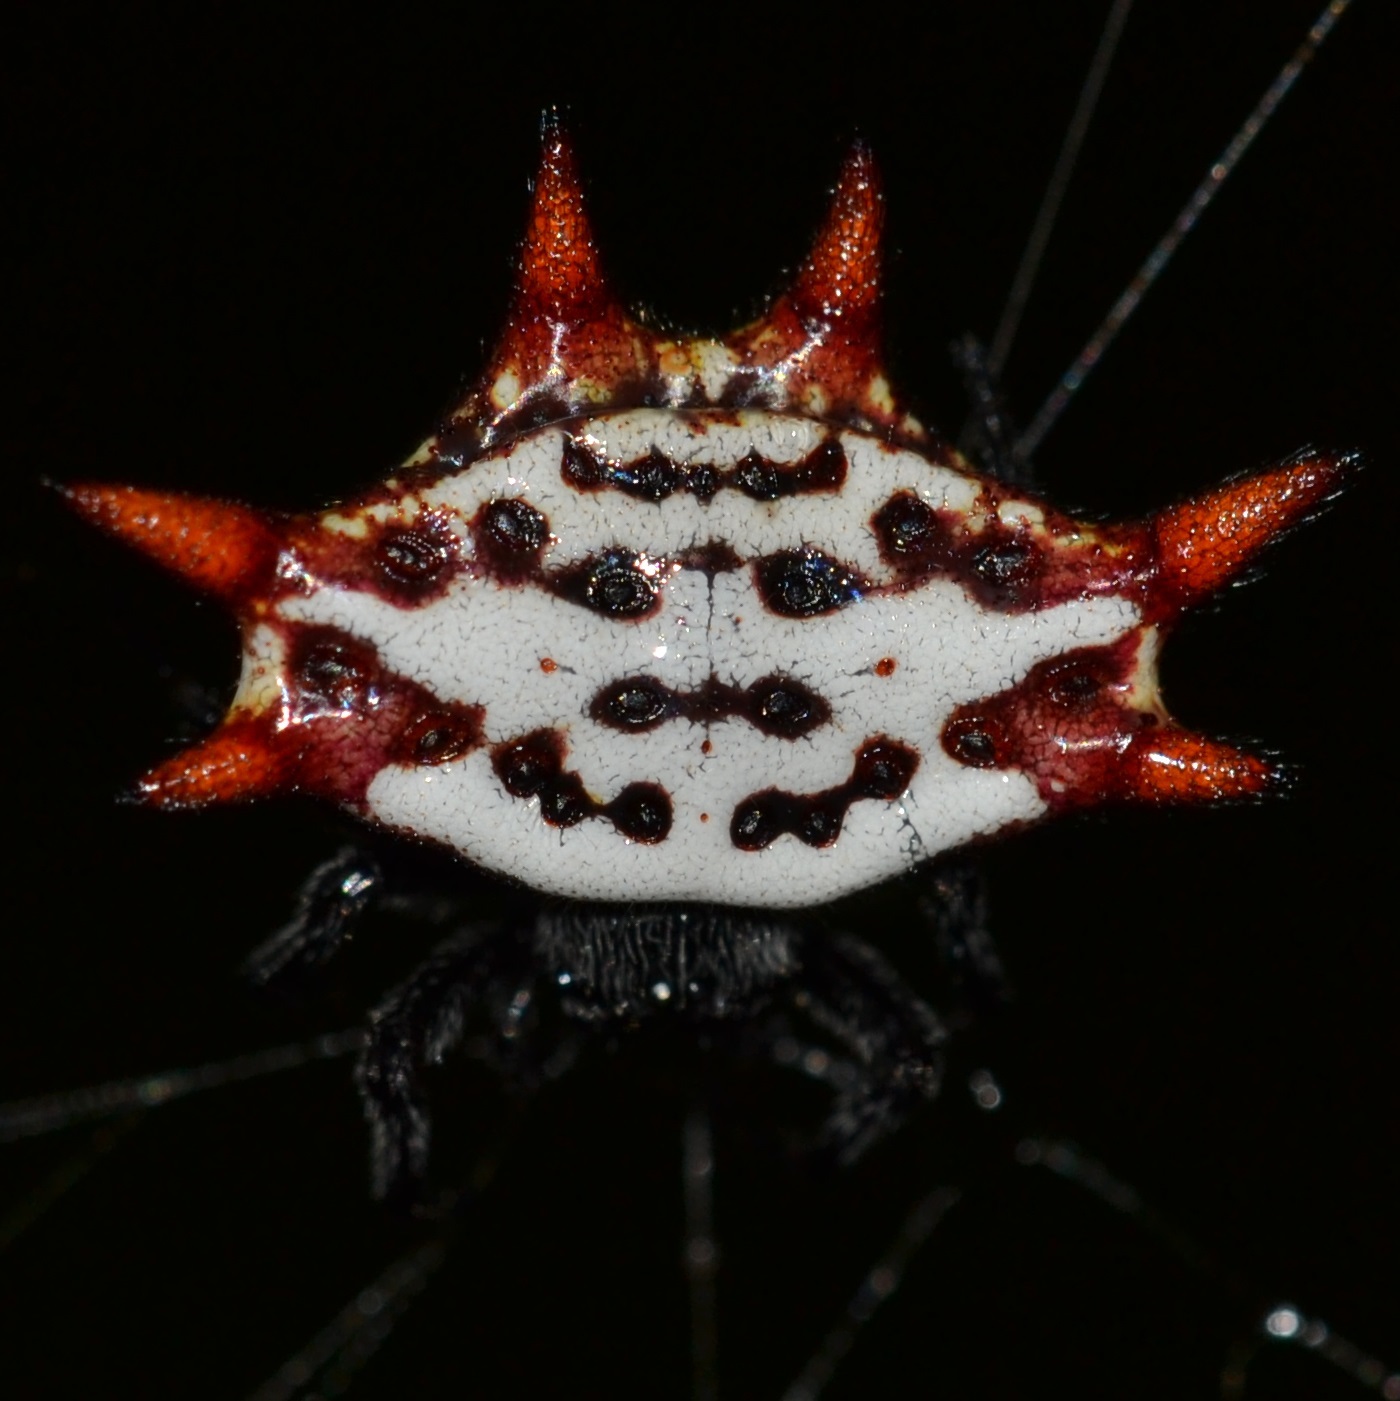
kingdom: Animalia
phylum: Arthropoda
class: Arachnida
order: Araneae
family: Araneidae
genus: Gasteracantha
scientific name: Gasteracantha cancriformis
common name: Orb weavers
